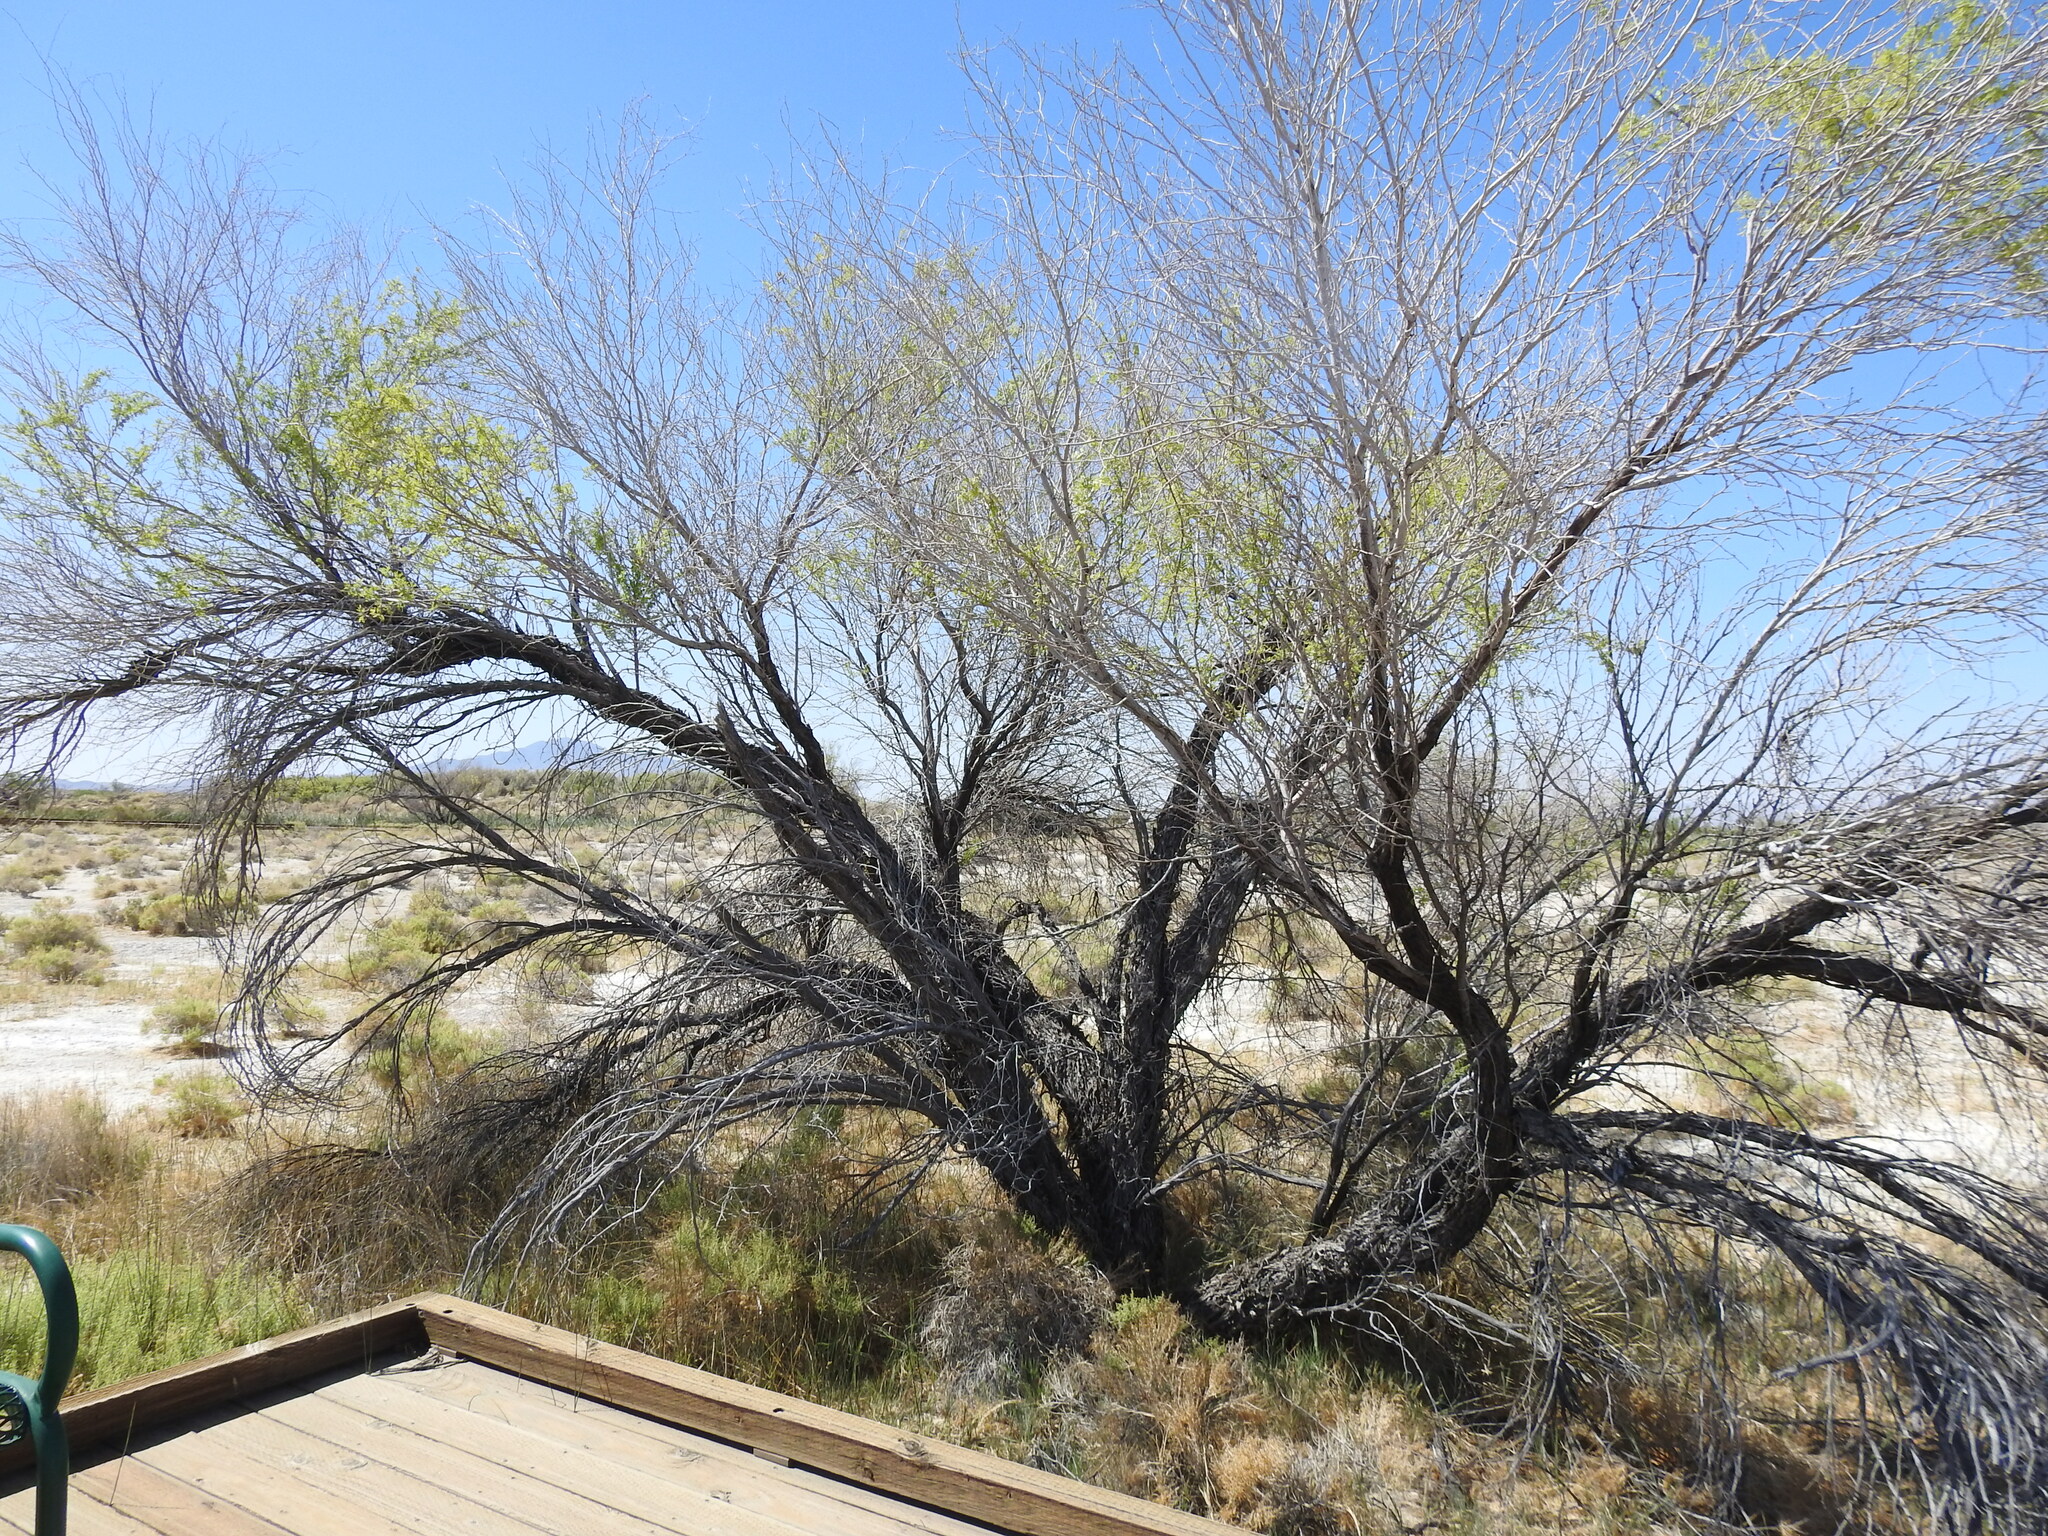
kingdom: Plantae
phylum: Tracheophyta
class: Magnoliopsida
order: Fabales
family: Fabaceae
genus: Prosopis
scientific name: Prosopis pubescens
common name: Screw-bean
